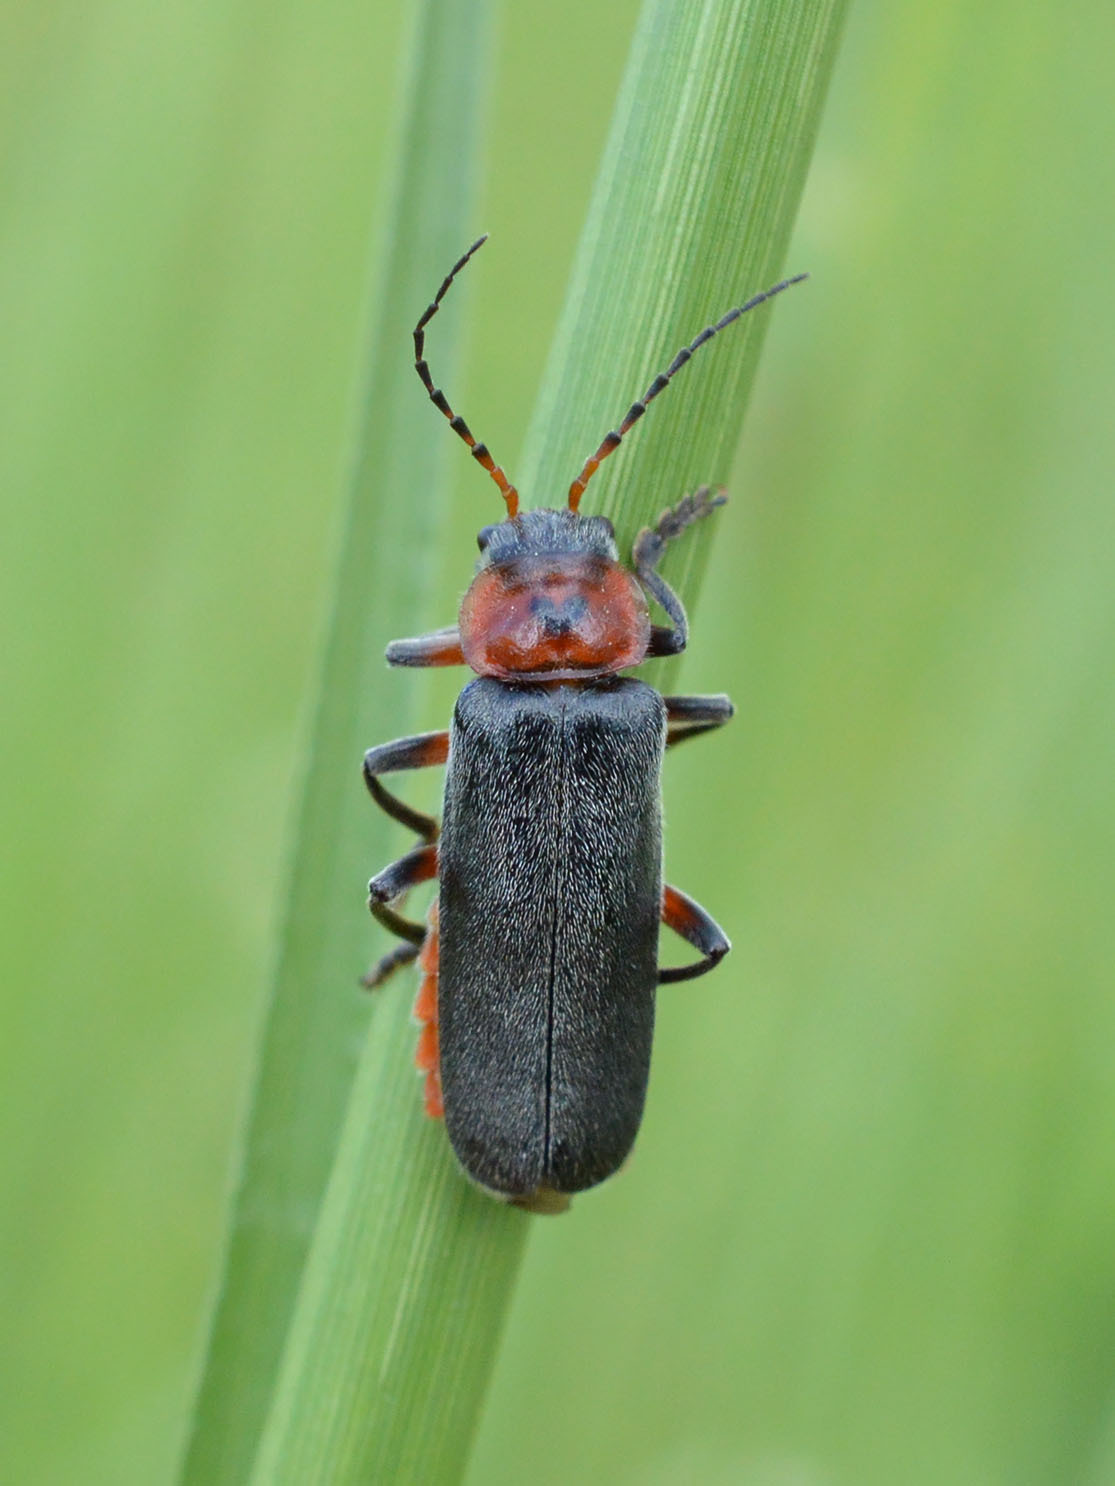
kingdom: Animalia
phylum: Arthropoda
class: Insecta
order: Coleoptera
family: Cantharidae
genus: Cantharis
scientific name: Cantharis rustica
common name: Soldier beetle
